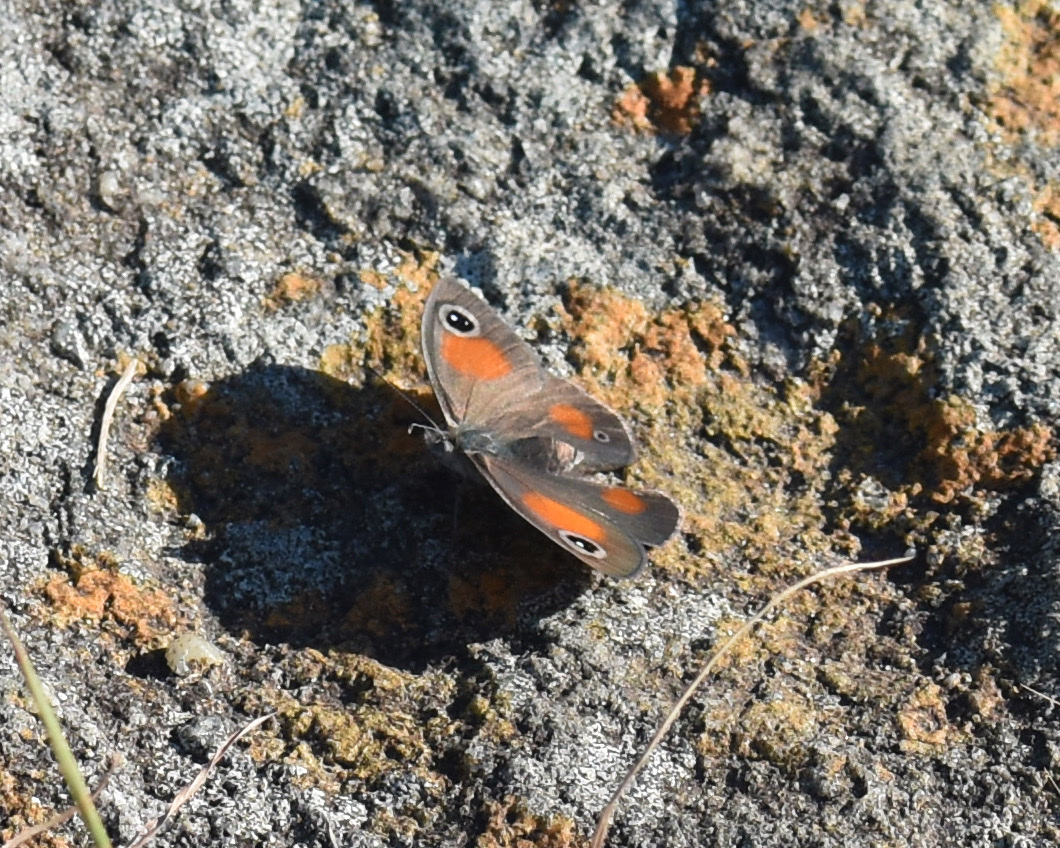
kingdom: Animalia
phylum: Arthropoda
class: Insecta
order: Lepidoptera
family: Nymphalidae
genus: Stygionympha
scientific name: Stygionympha wichgrafi
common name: Wichgraf’s hillside brown
